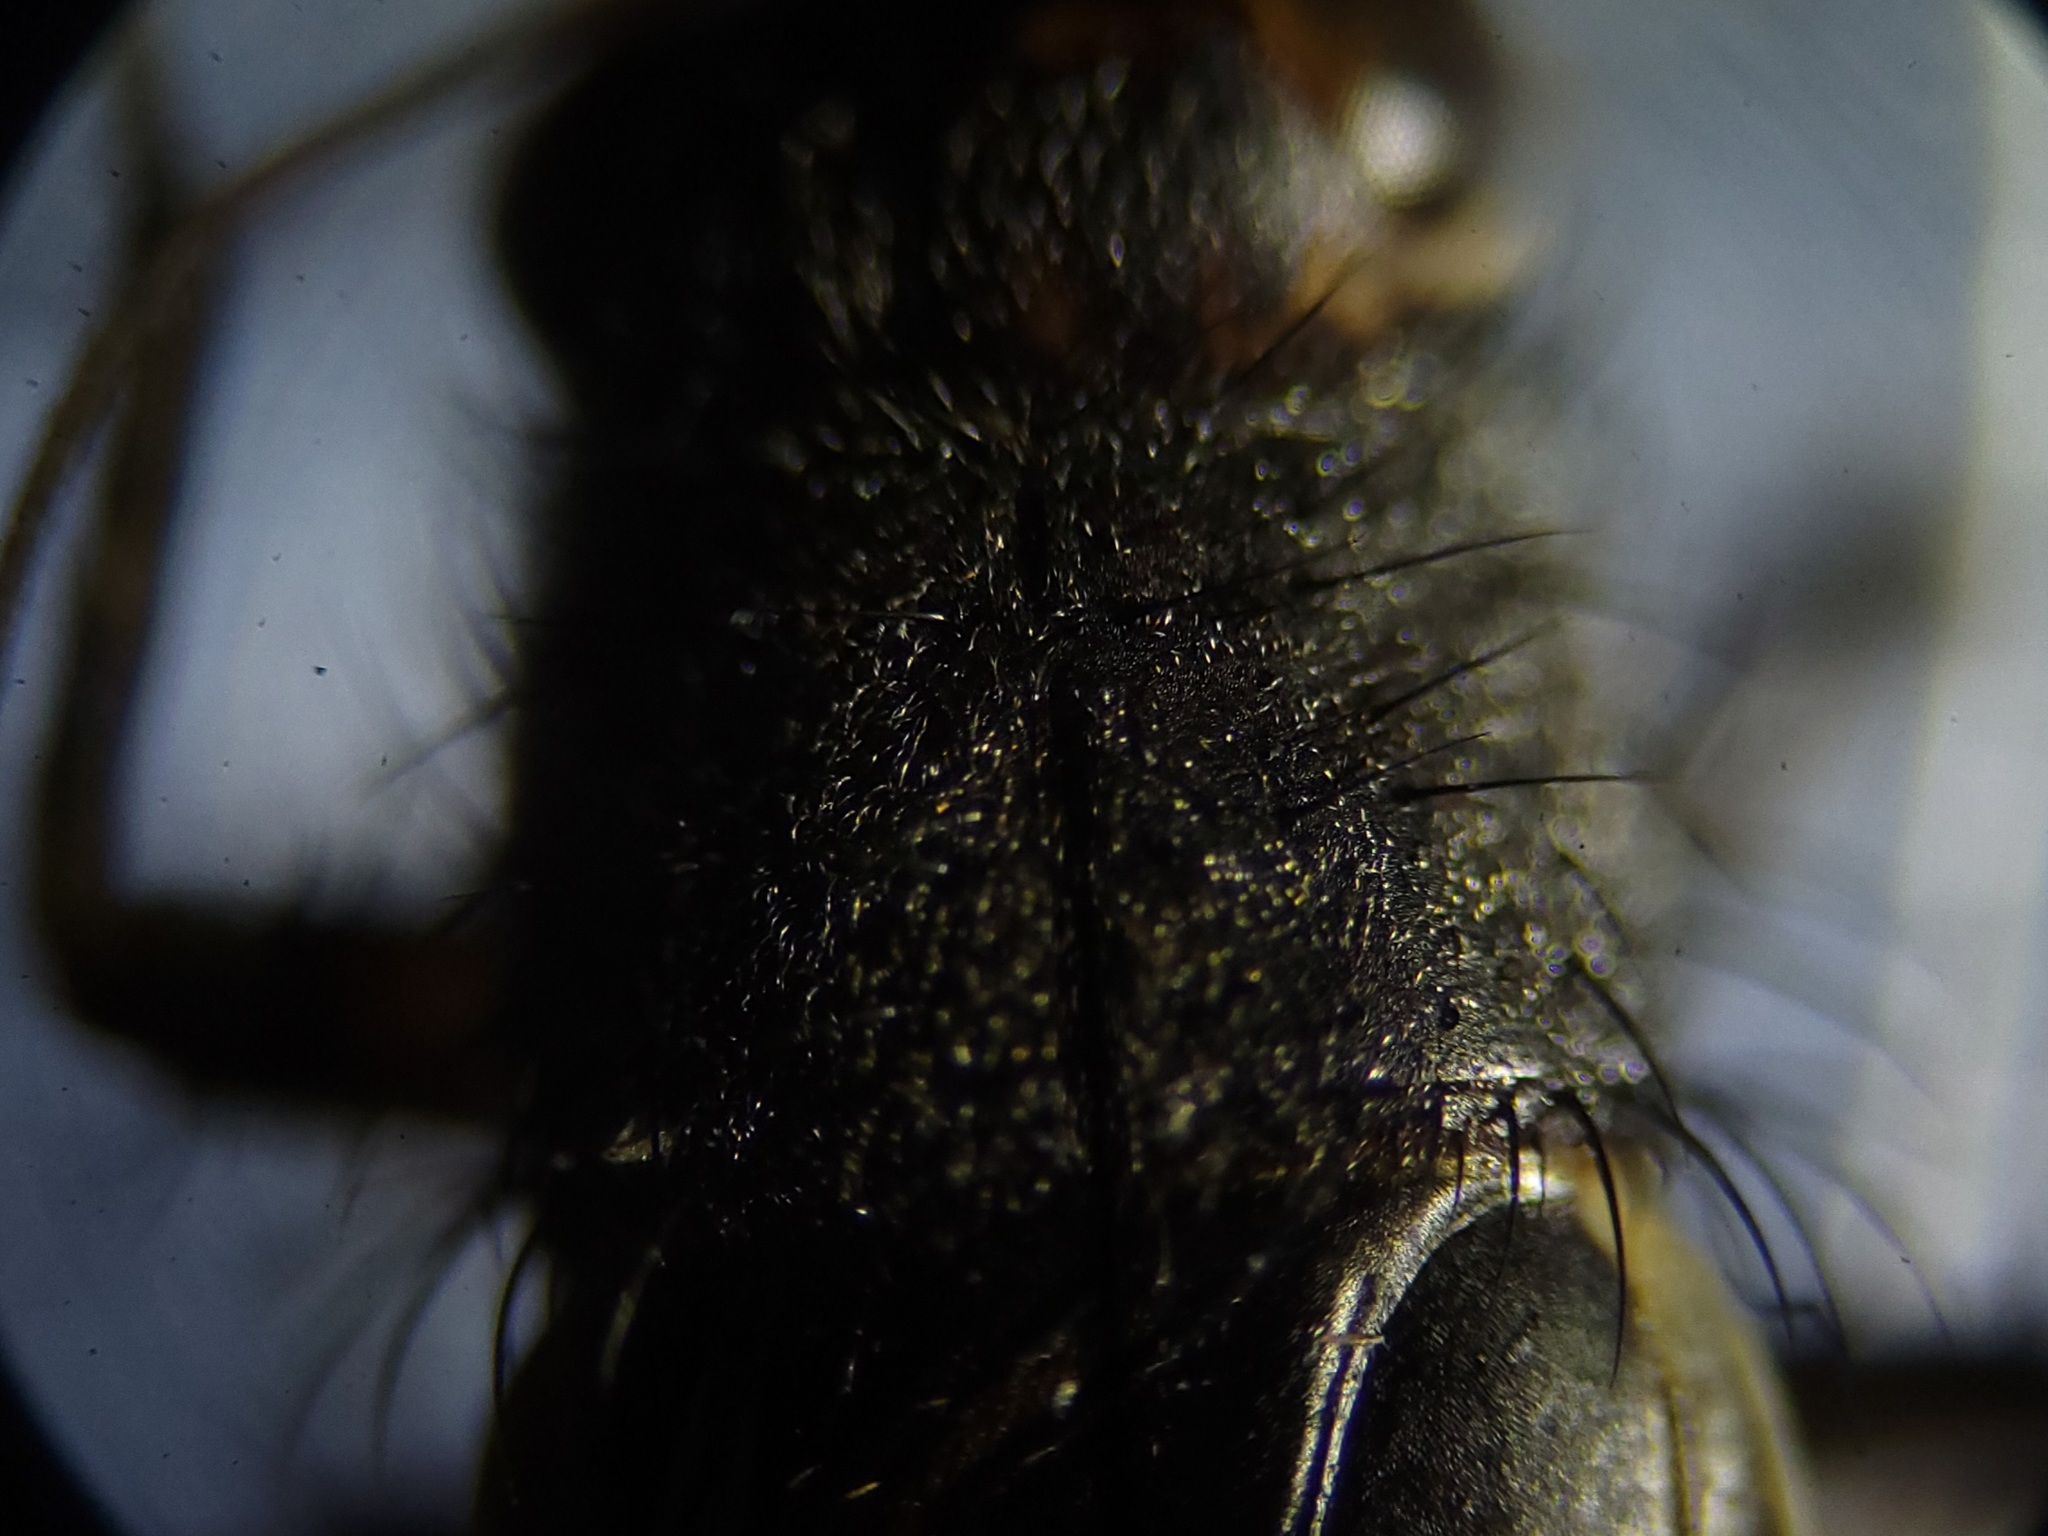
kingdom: Animalia
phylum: Arthropoda
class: Insecta
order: Orthoptera
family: Trigonidiidae
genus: Pictonemobius
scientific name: Pictonemobius ambitiosus
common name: Ambitious ground cricket
